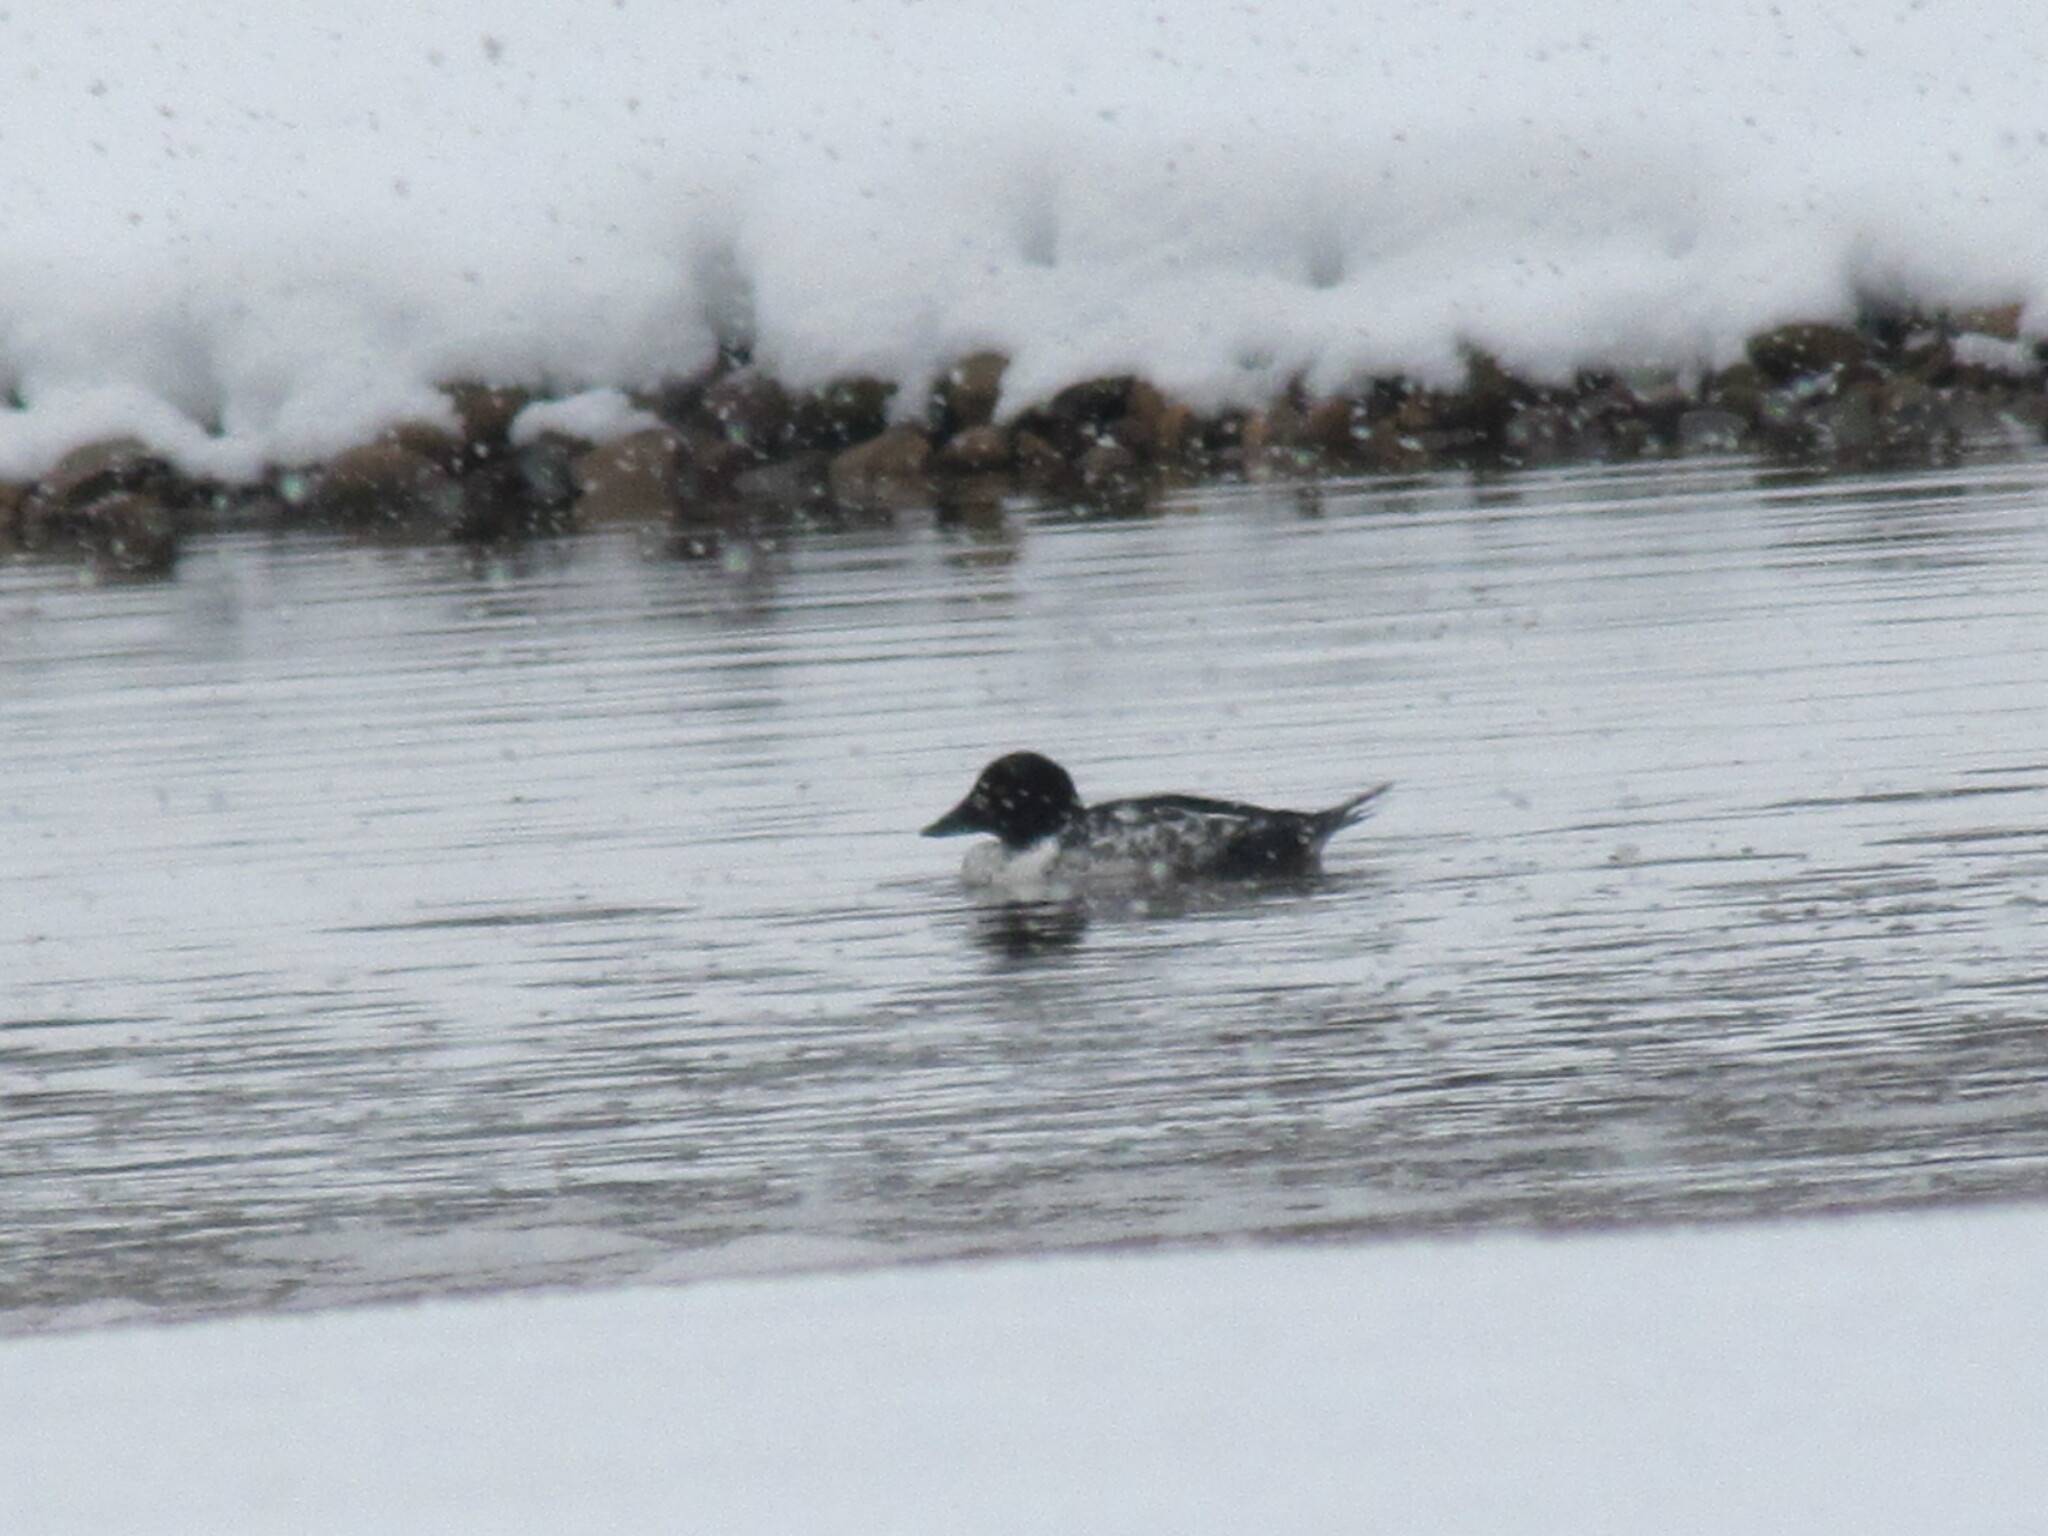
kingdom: Animalia
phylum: Chordata
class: Aves
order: Anseriformes
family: Anatidae
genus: Bucephala
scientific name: Bucephala clangula
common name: Common goldeneye
